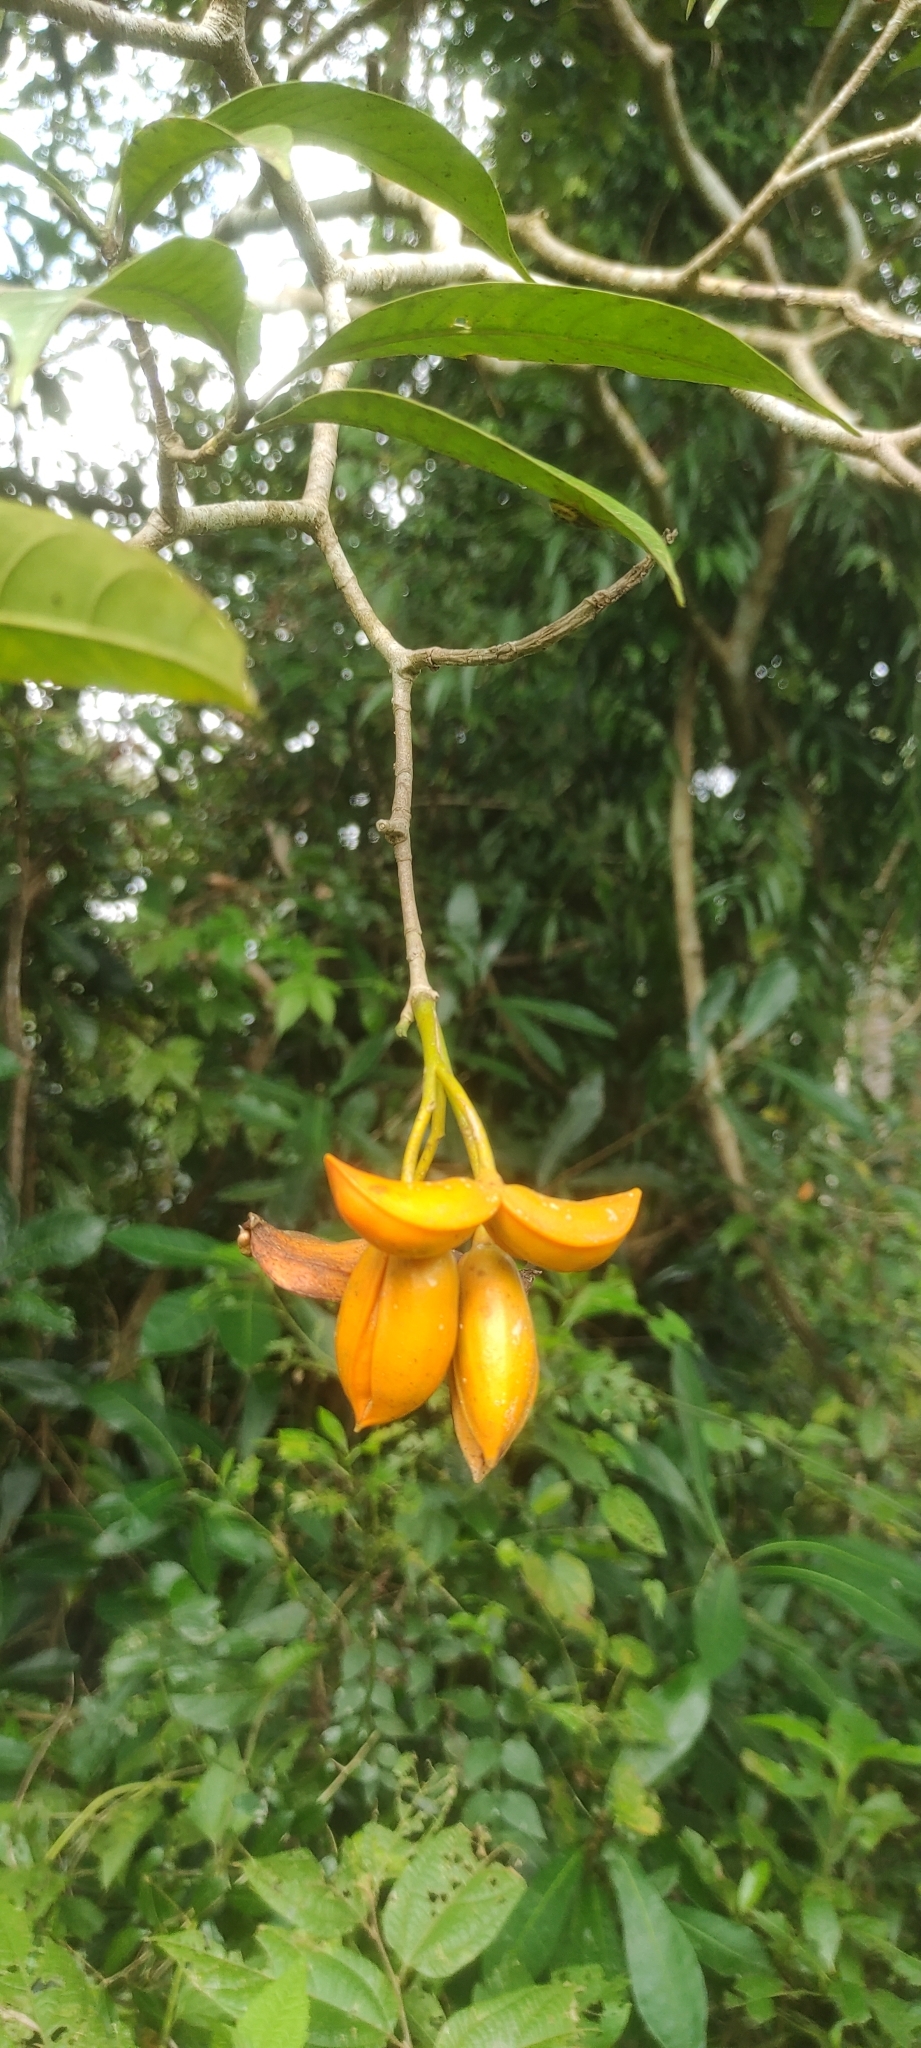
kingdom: Plantae
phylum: Tracheophyta
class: Magnoliopsida
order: Gentianales
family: Apocynaceae
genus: Tabernaemontana
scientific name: Tabernaemontana alternifolia
